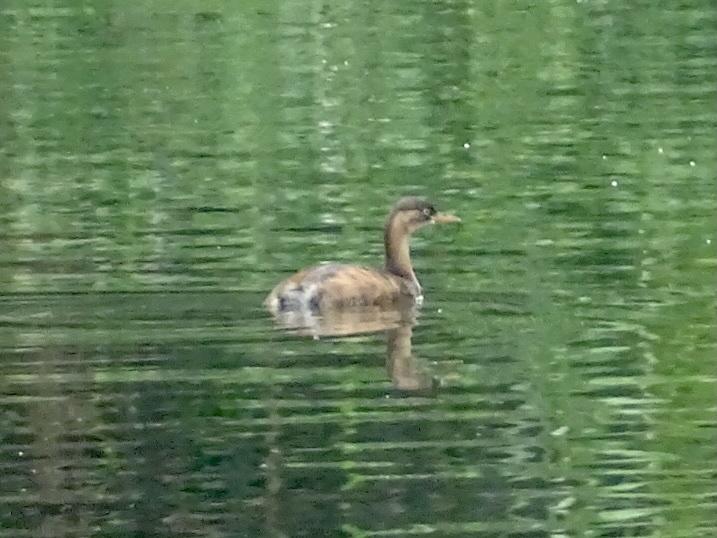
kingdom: Animalia
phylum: Chordata
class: Aves
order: Podicipediformes
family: Podicipedidae
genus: Tachybaptus
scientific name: Tachybaptus ruficollis
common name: Little grebe
